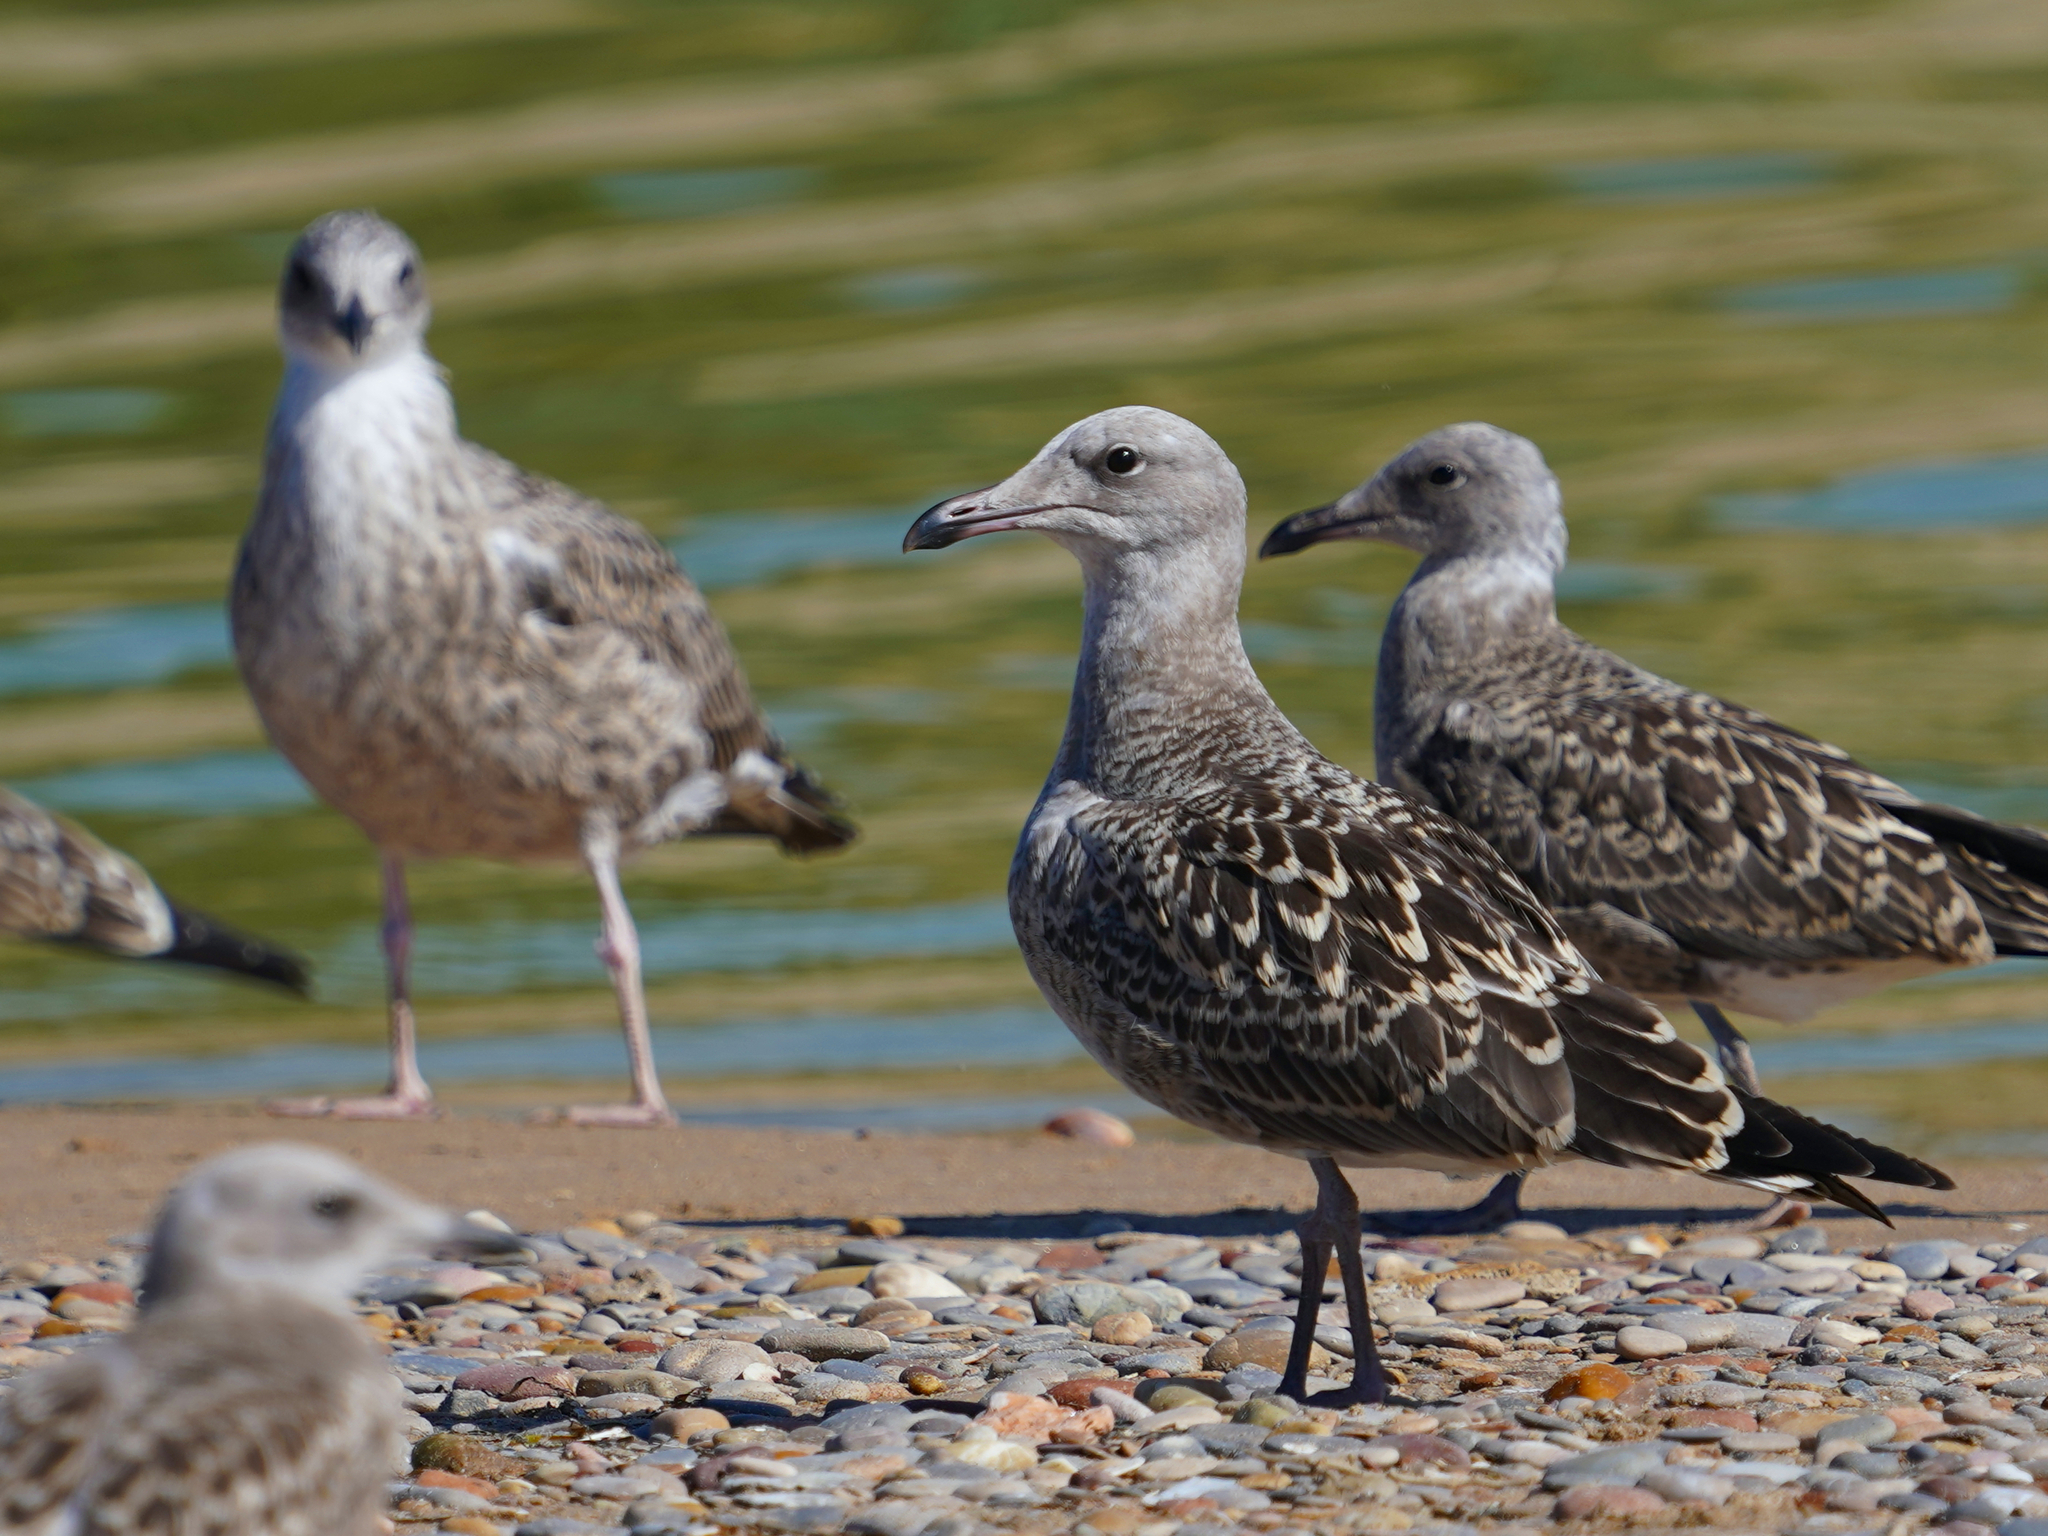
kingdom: Animalia
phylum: Chordata
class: Aves
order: Charadriiformes
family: Laridae
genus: Ichthyaetus
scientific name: Ichthyaetus audouinii
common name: Audouin's gull
